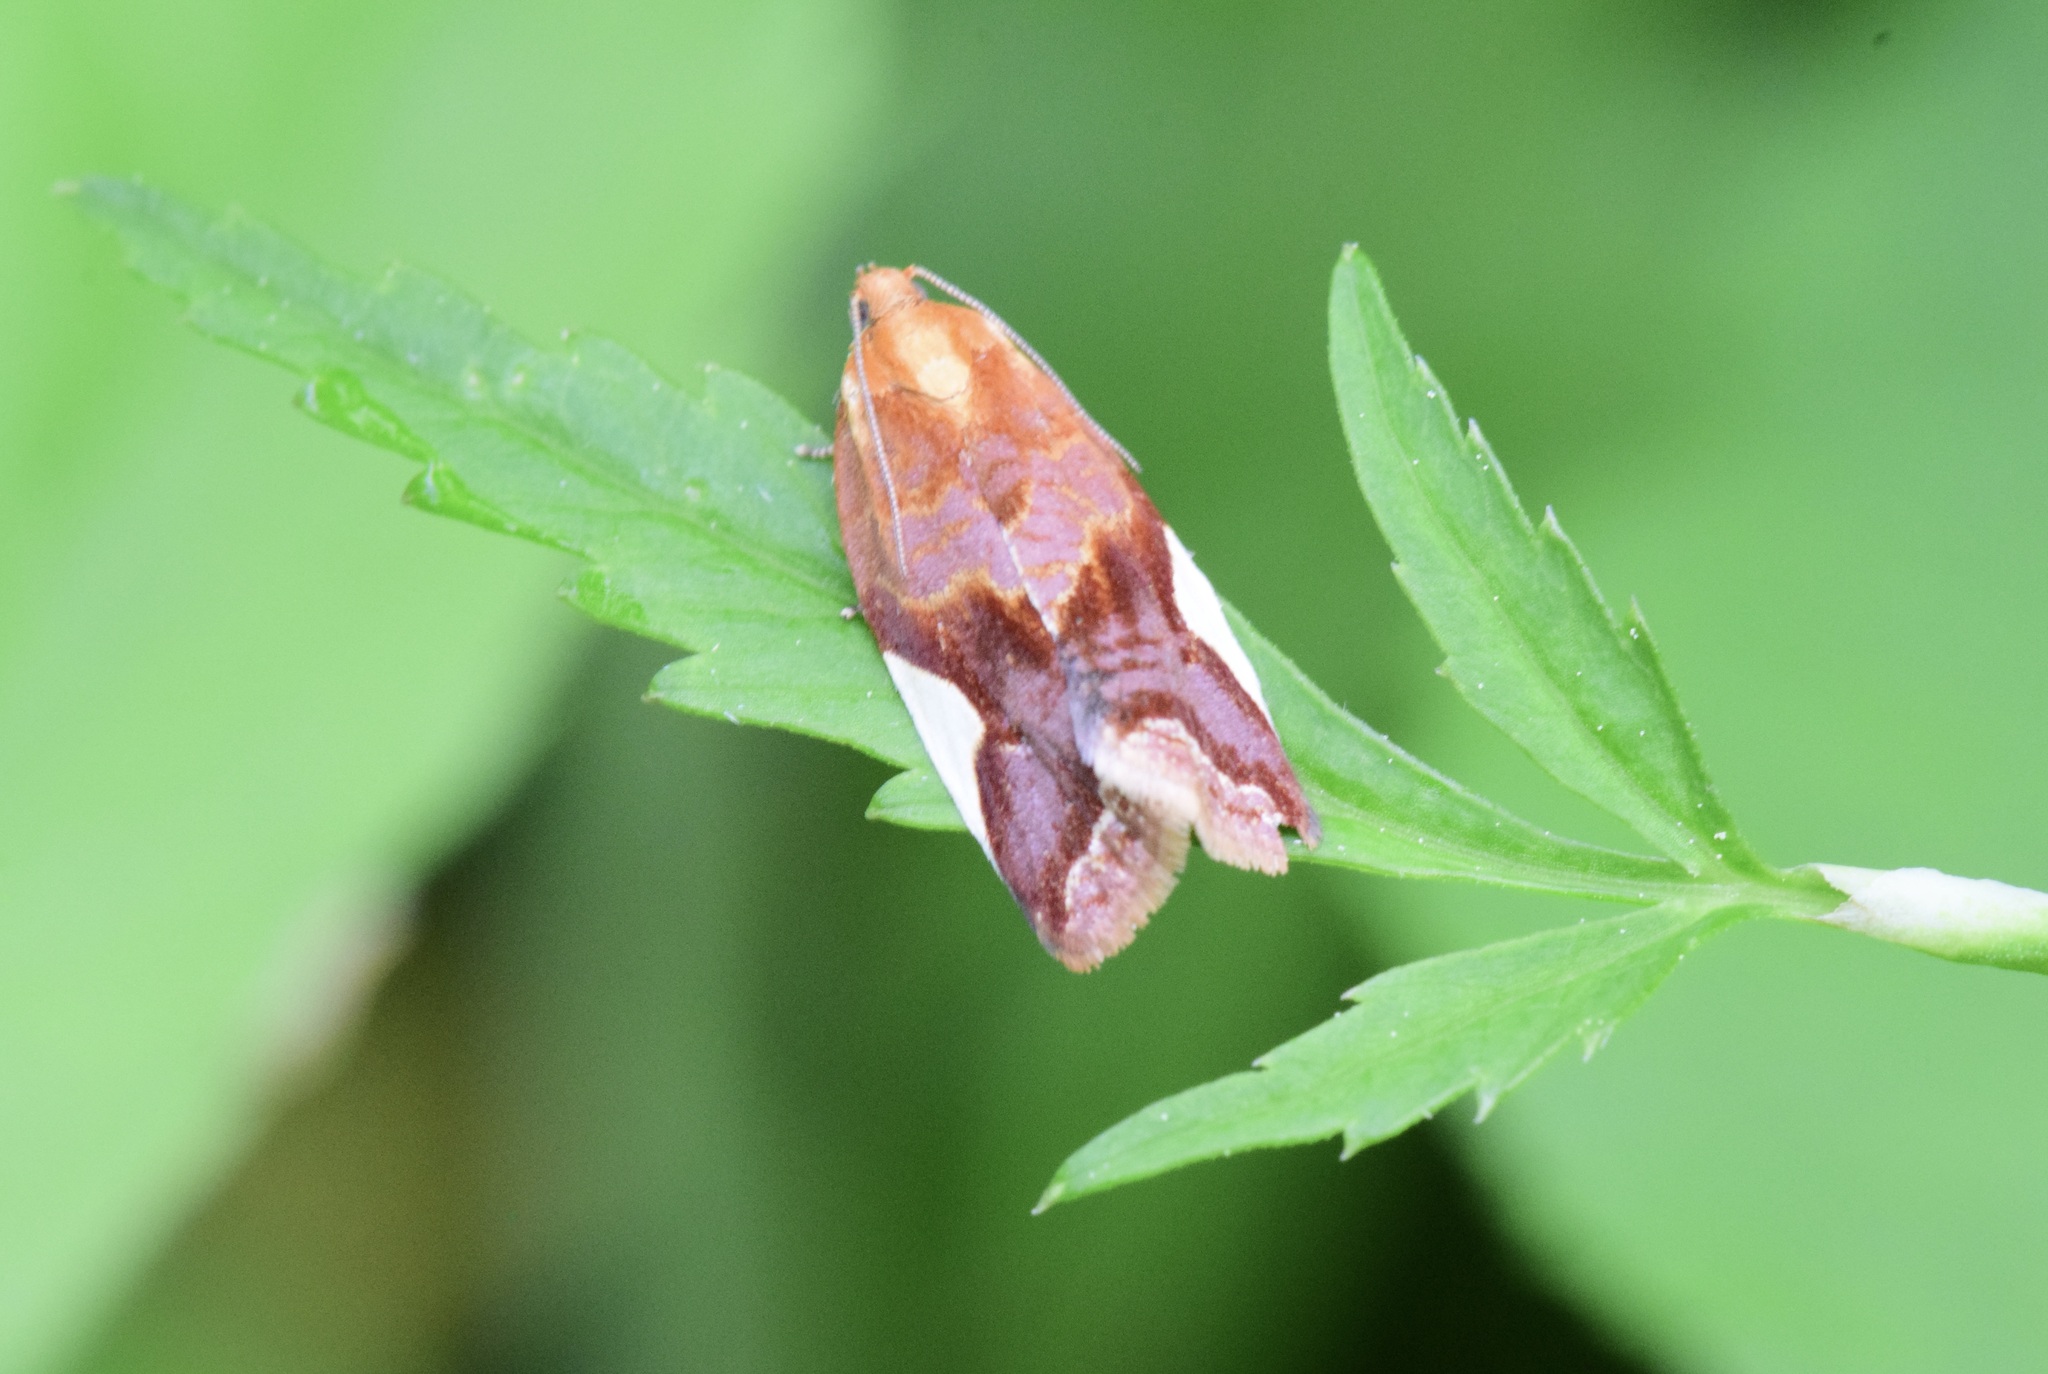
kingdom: Animalia
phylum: Arthropoda
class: Insecta
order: Lepidoptera
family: Tortricidae
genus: Clepsis
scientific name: Clepsis persicana
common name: White triangle tortrix
